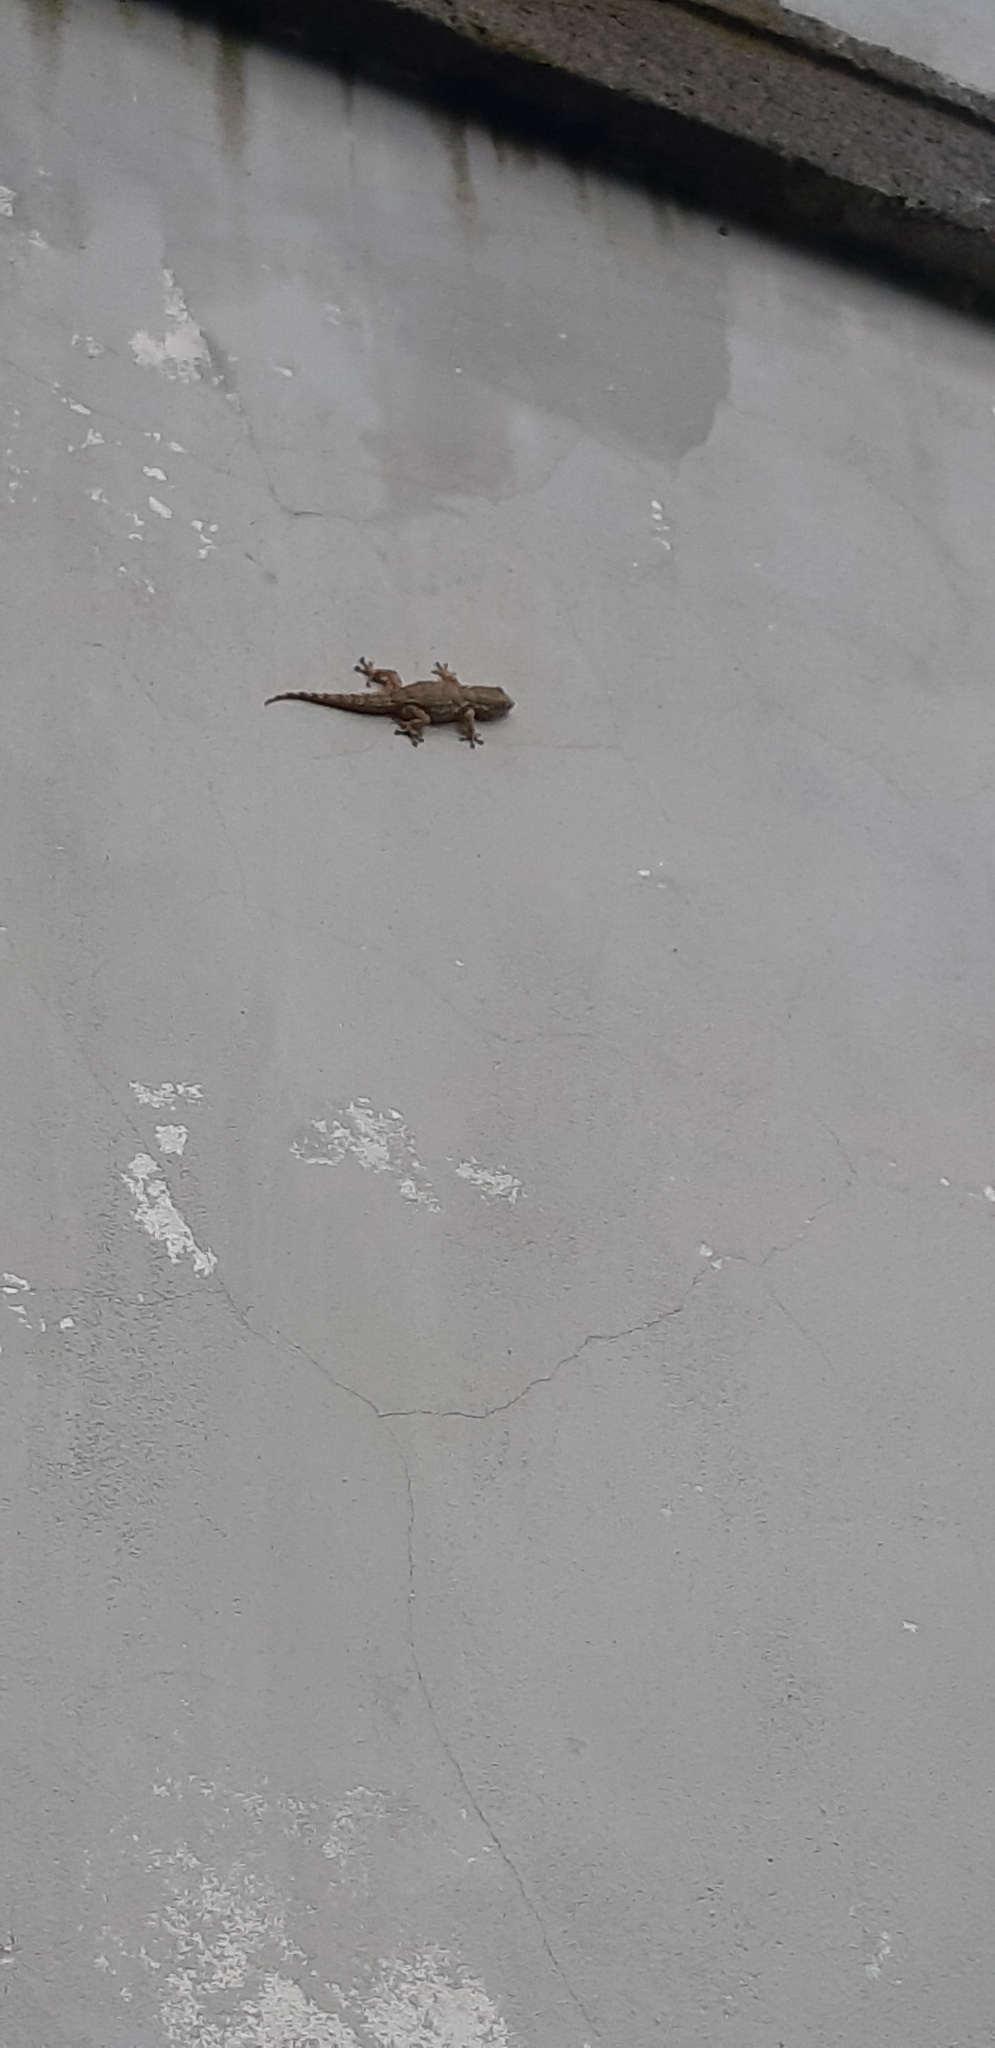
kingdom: Animalia
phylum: Chordata
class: Squamata
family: Phyllodactylidae
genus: Tarentola
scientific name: Tarentola mauritanica
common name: Moorish gecko
